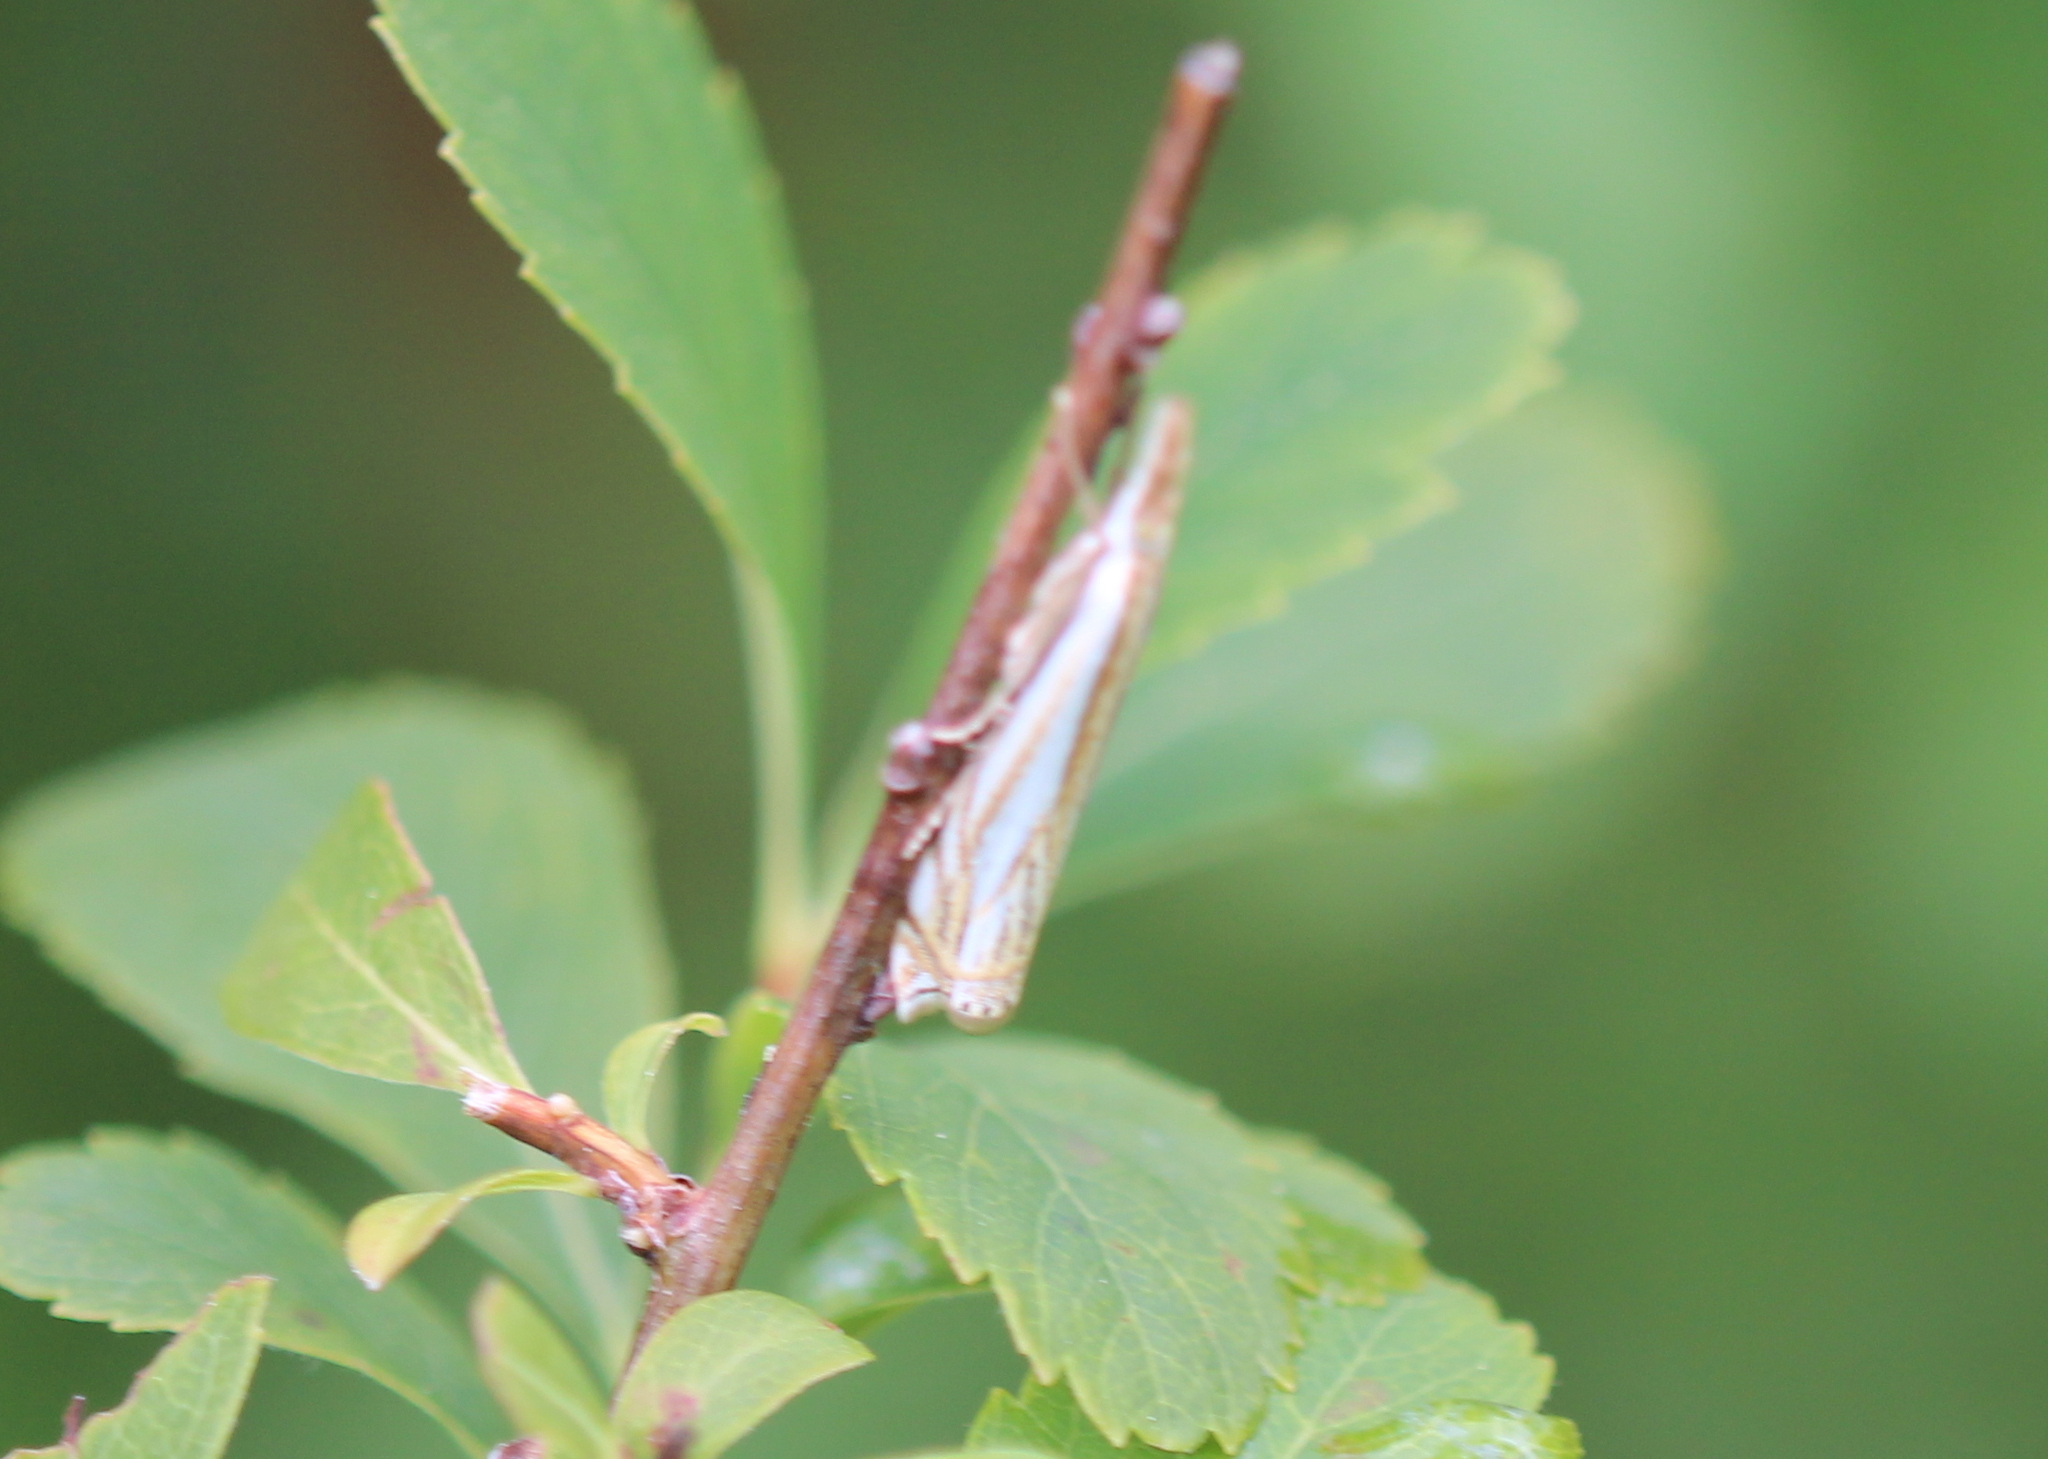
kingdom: Animalia
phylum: Arthropoda
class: Insecta
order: Lepidoptera
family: Crambidae
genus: Crambus
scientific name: Crambus
